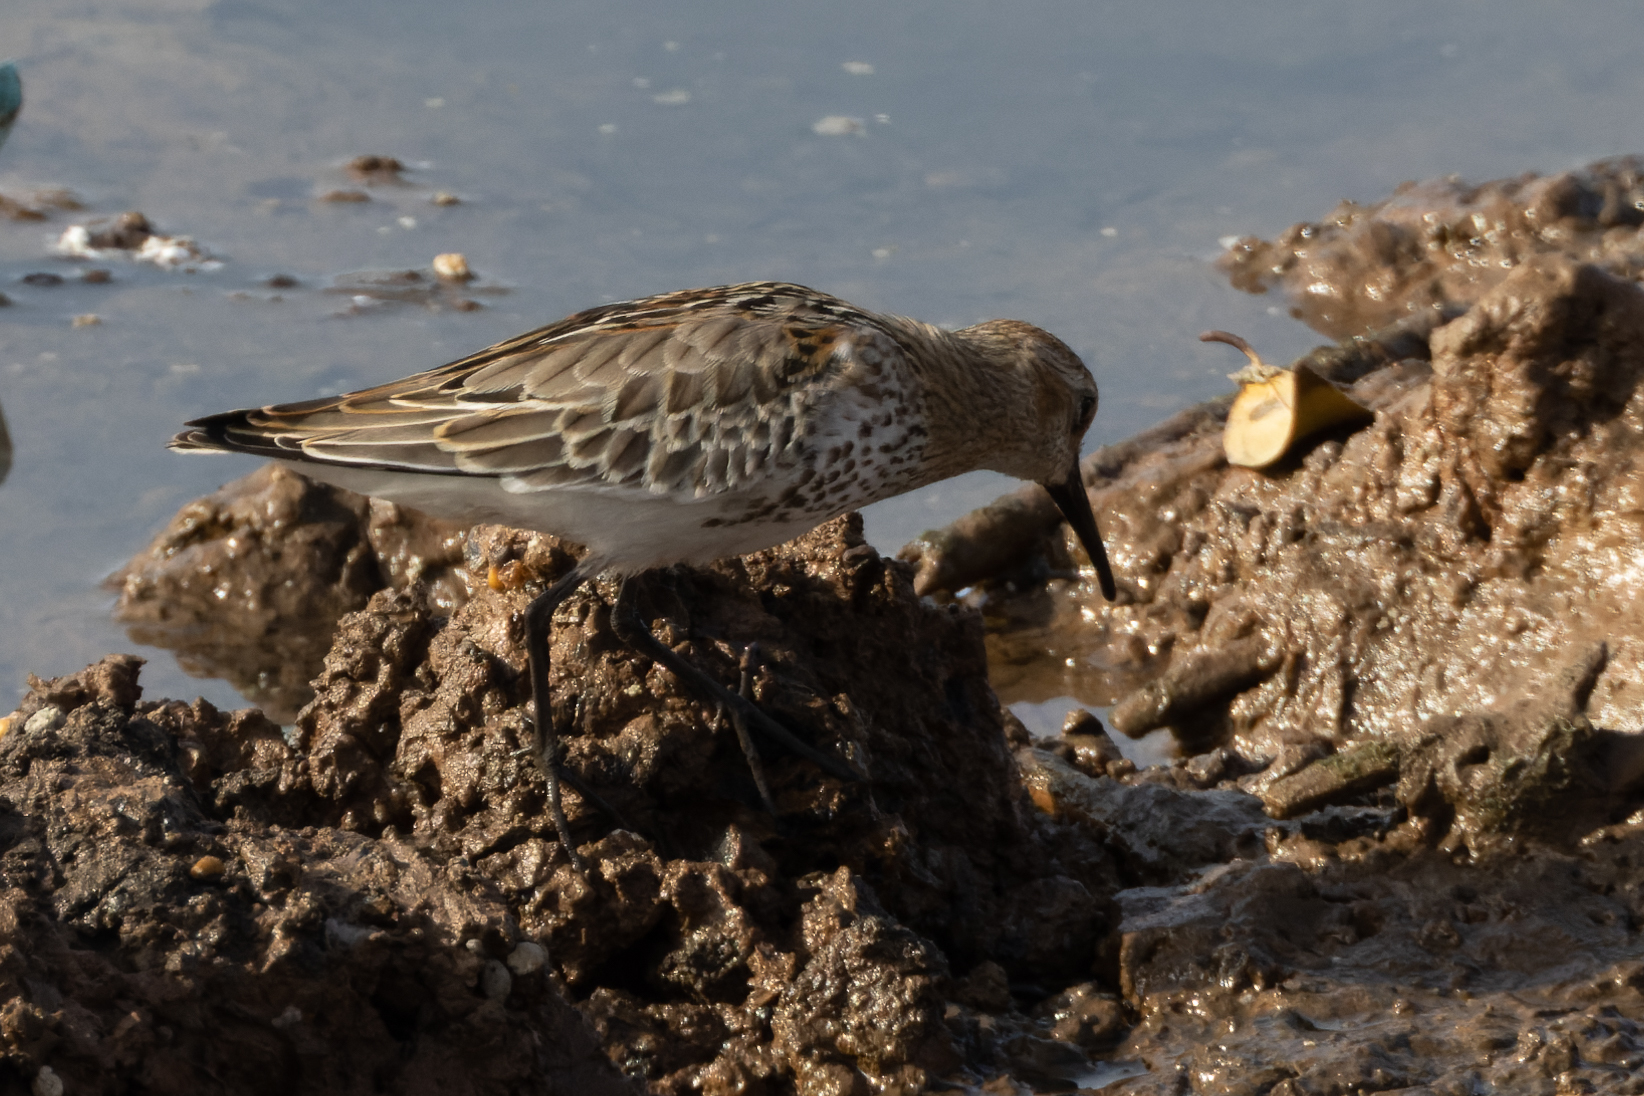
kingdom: Animalia
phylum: Chordata
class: Aves
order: Charadriiformes
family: Scolopacidae
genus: Calidris
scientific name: Calidris alpina
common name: Dunlin
